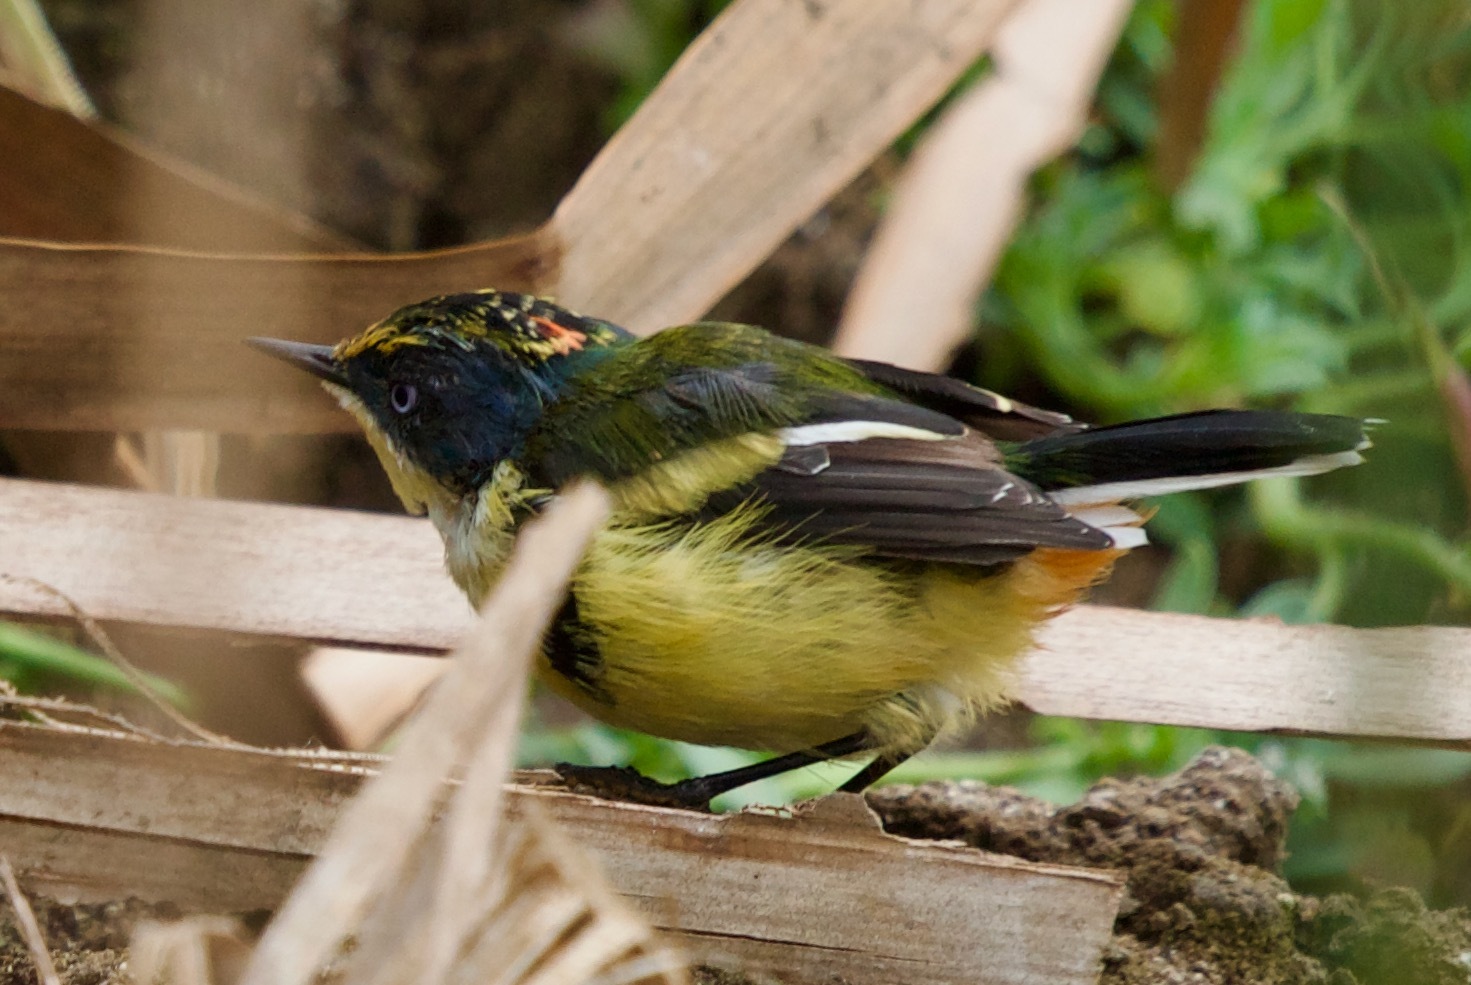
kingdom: Animalia
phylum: Chordata
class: Aves
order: Passeriformes
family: Tyrannidae
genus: Tachuris
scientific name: Tachuris rubrigastra
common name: Many-colored rush tyrant
